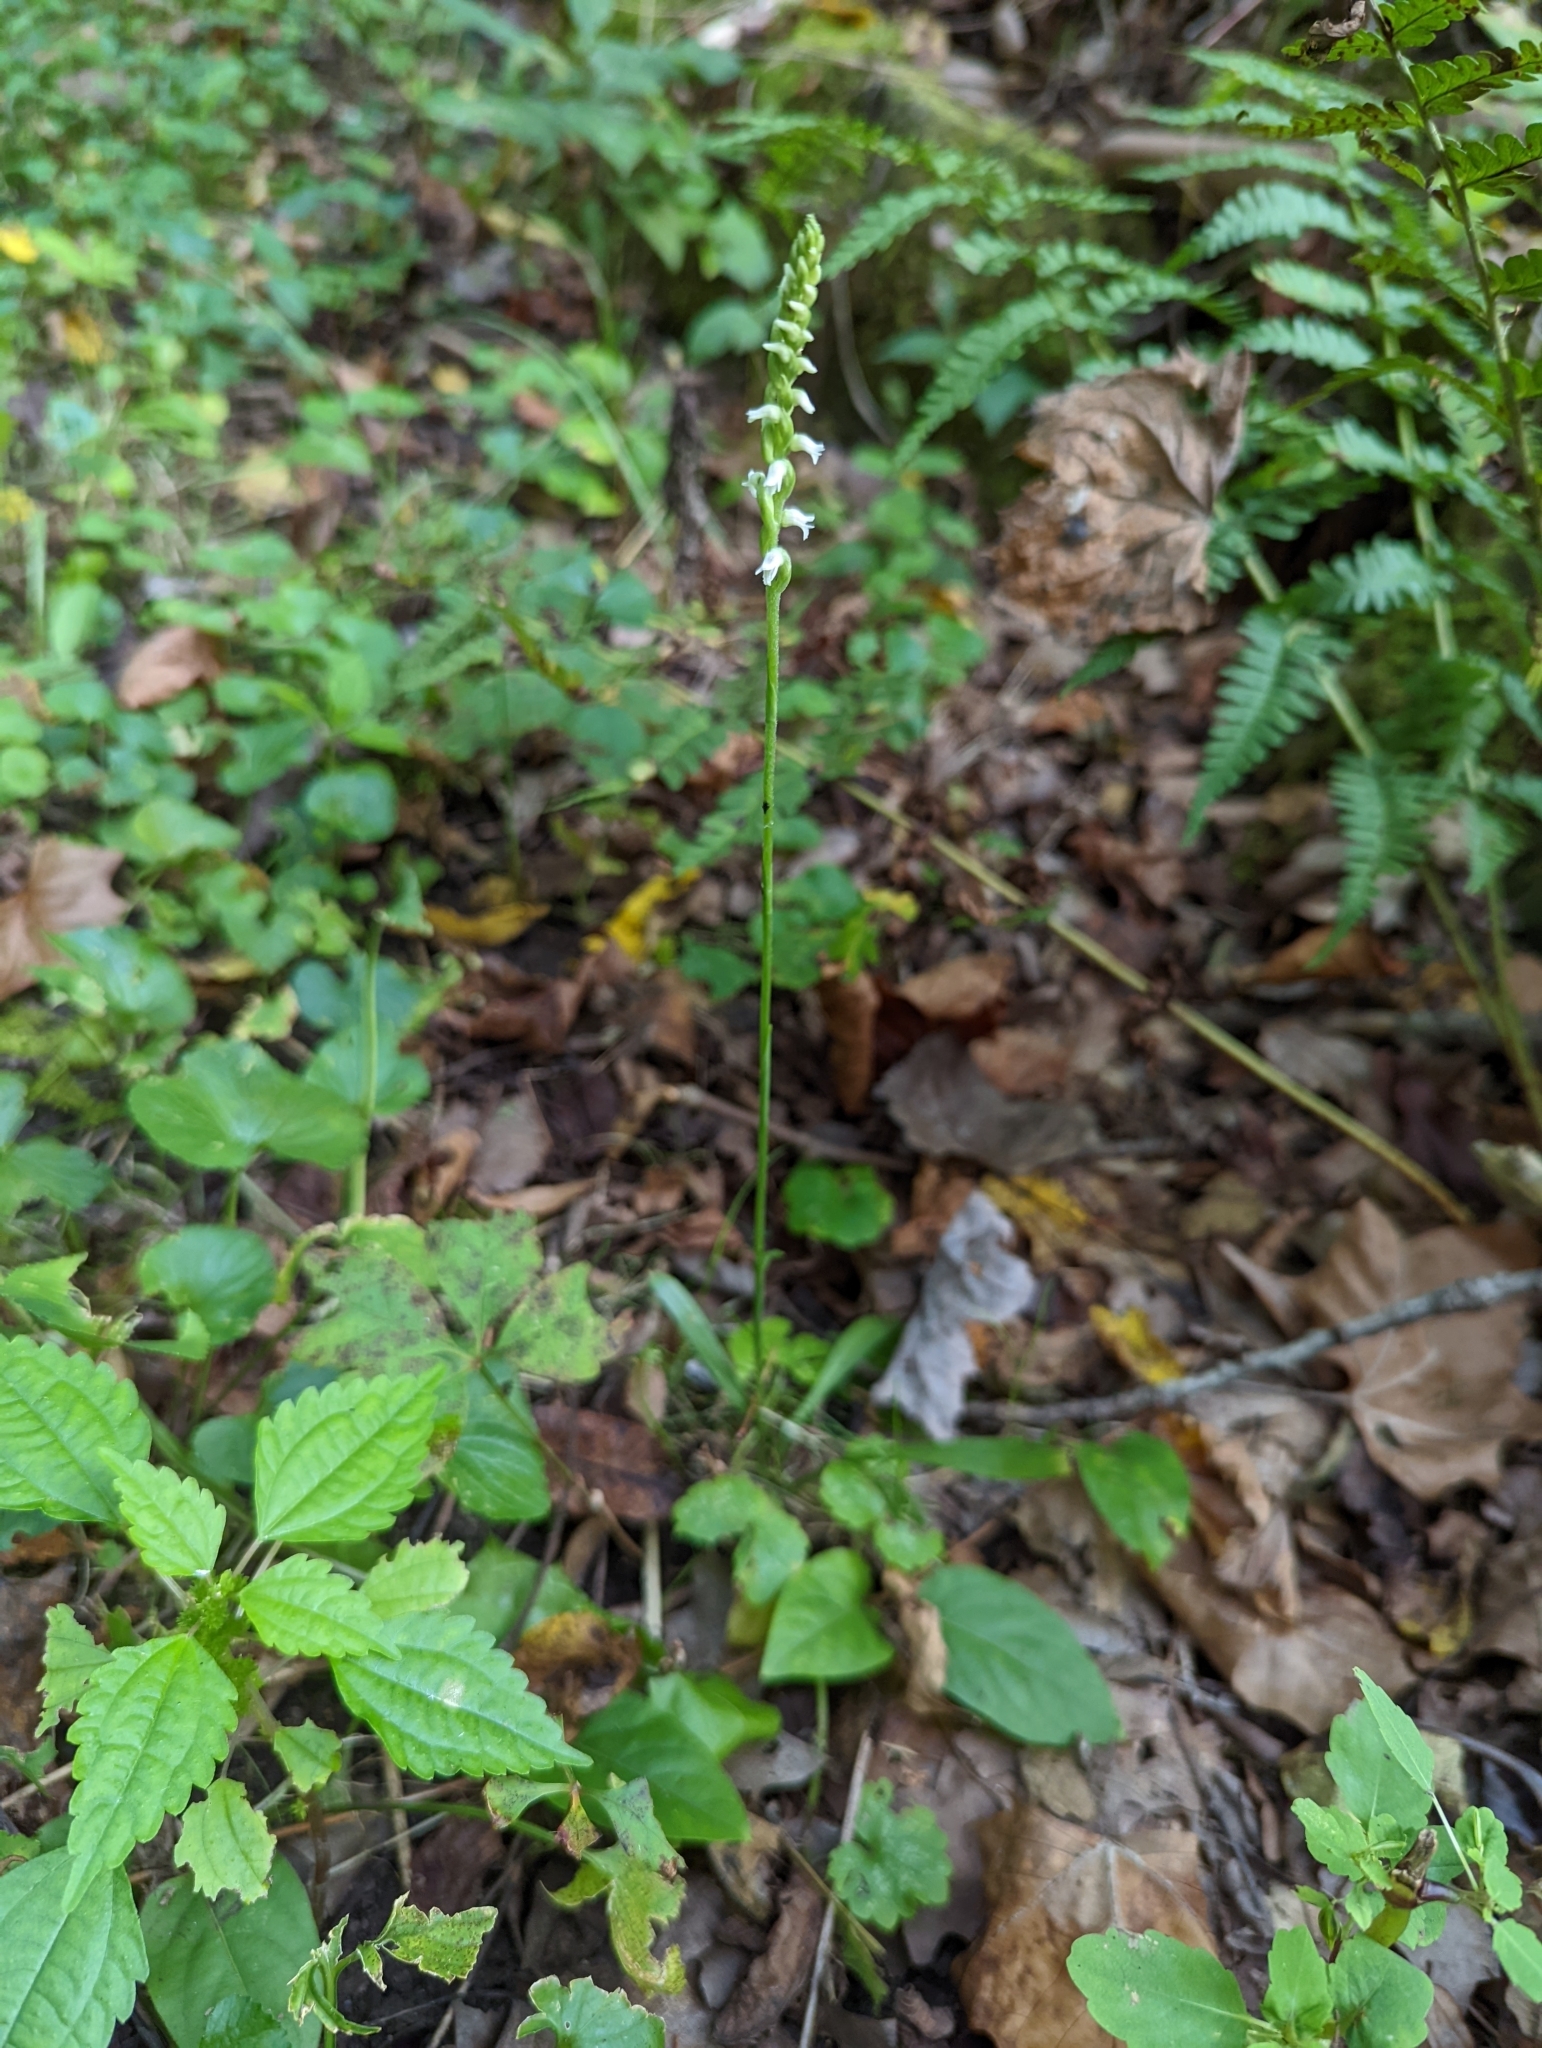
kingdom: Plantae
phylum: Tracheophyta
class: Liliopsida
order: Asparagales
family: Orchidaceae
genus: Spiranthes
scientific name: Spiranthes ovalis
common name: October ladies'-tresses
